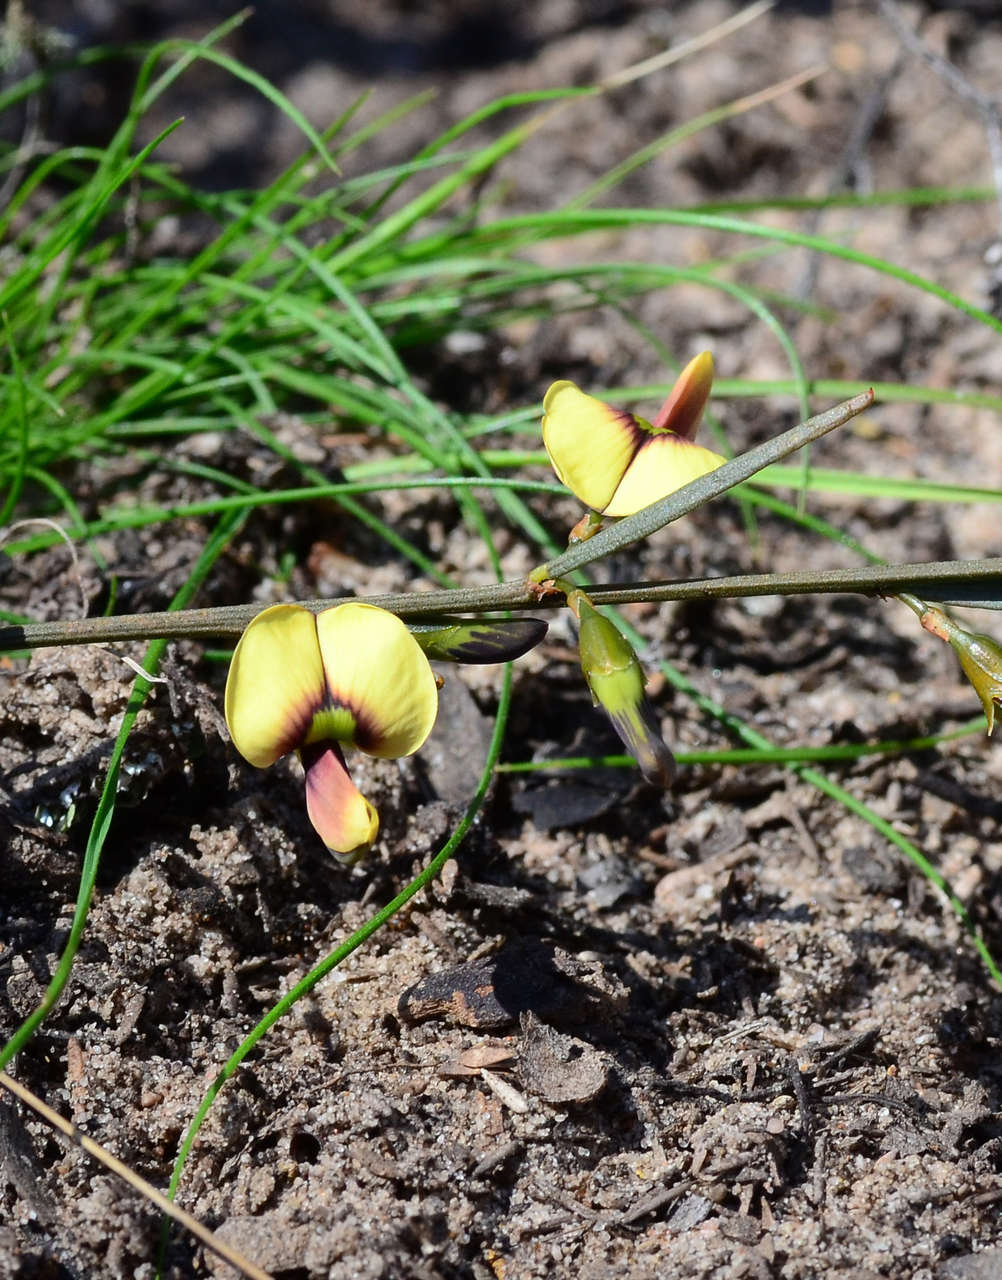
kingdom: Plantae
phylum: Tracheophyta
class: Magnoliopsida
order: Fabales
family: Fabaceae
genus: Templetonia
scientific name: Templetonia stenophylla
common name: Leafy templetonia
